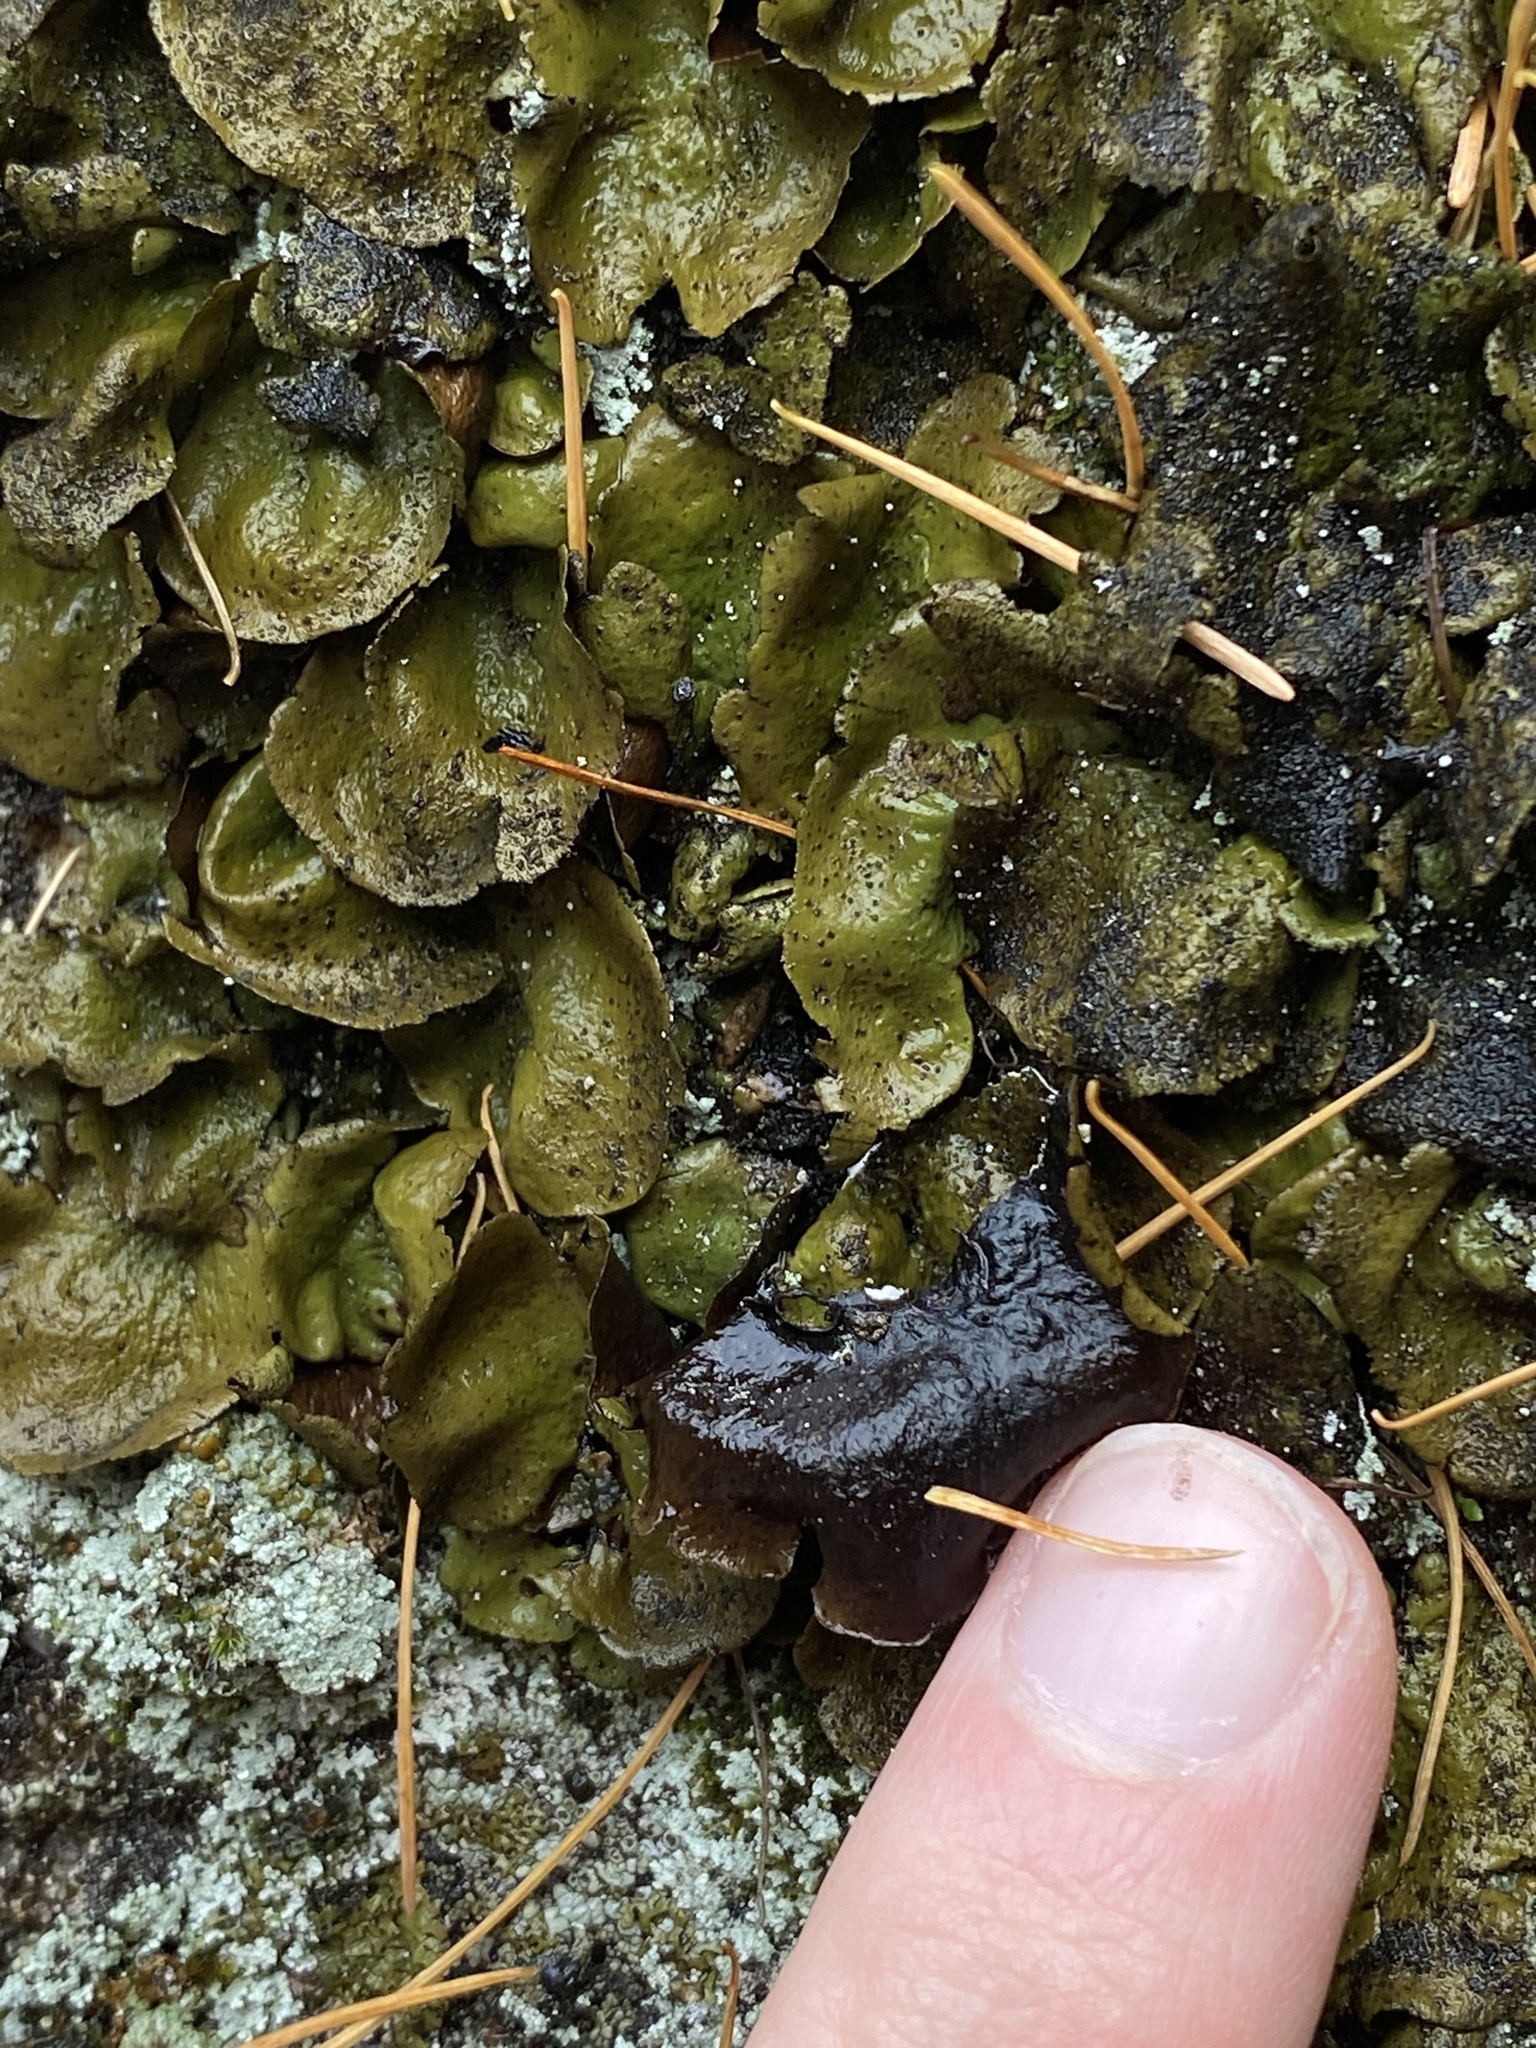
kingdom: Fungi
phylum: Ascomycota
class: Lecanoromycetes
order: Umbilicariales
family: Umbilicariaceae
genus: Umbilicaria
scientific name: Umbilicaria deusta
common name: Peppered rock tripe
